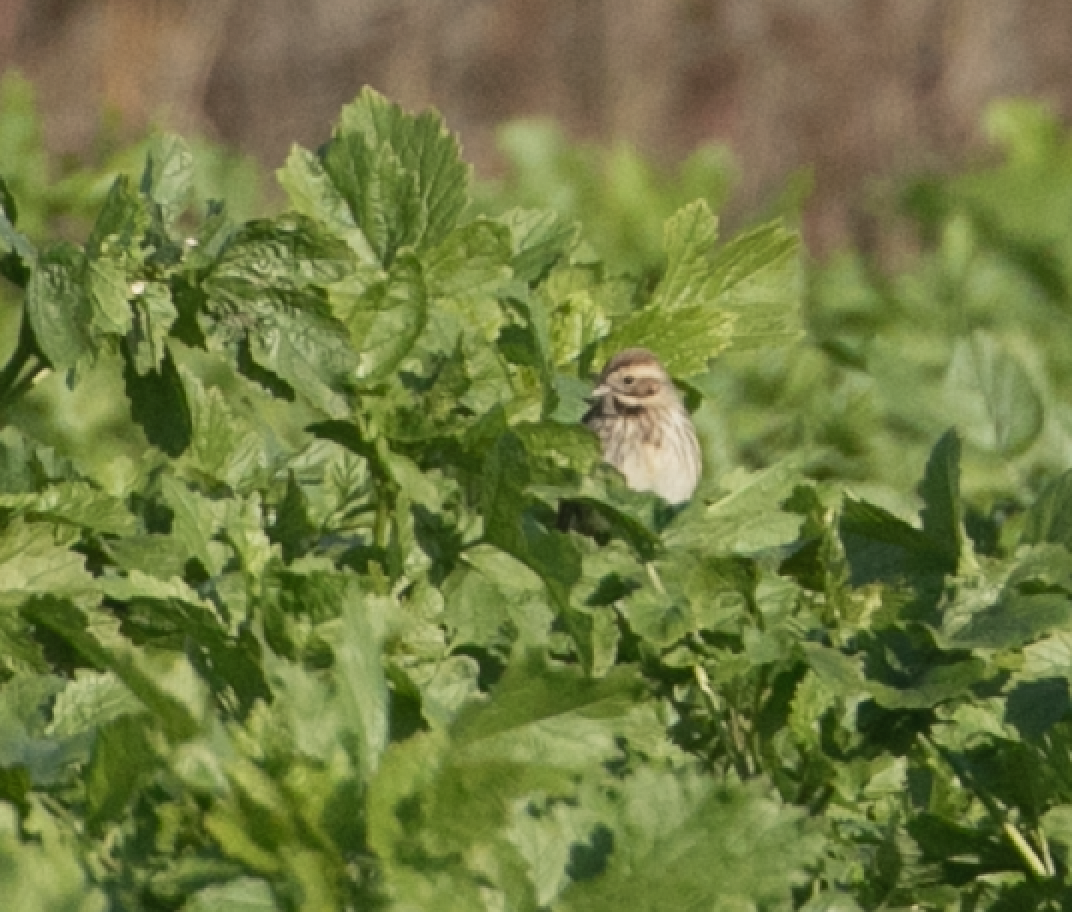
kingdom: Animalia
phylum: Chordata
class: Aves
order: Passeriformes
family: Emberizidae
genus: Emberiza
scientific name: Emberiza schoeniclus
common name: Reed bunting
